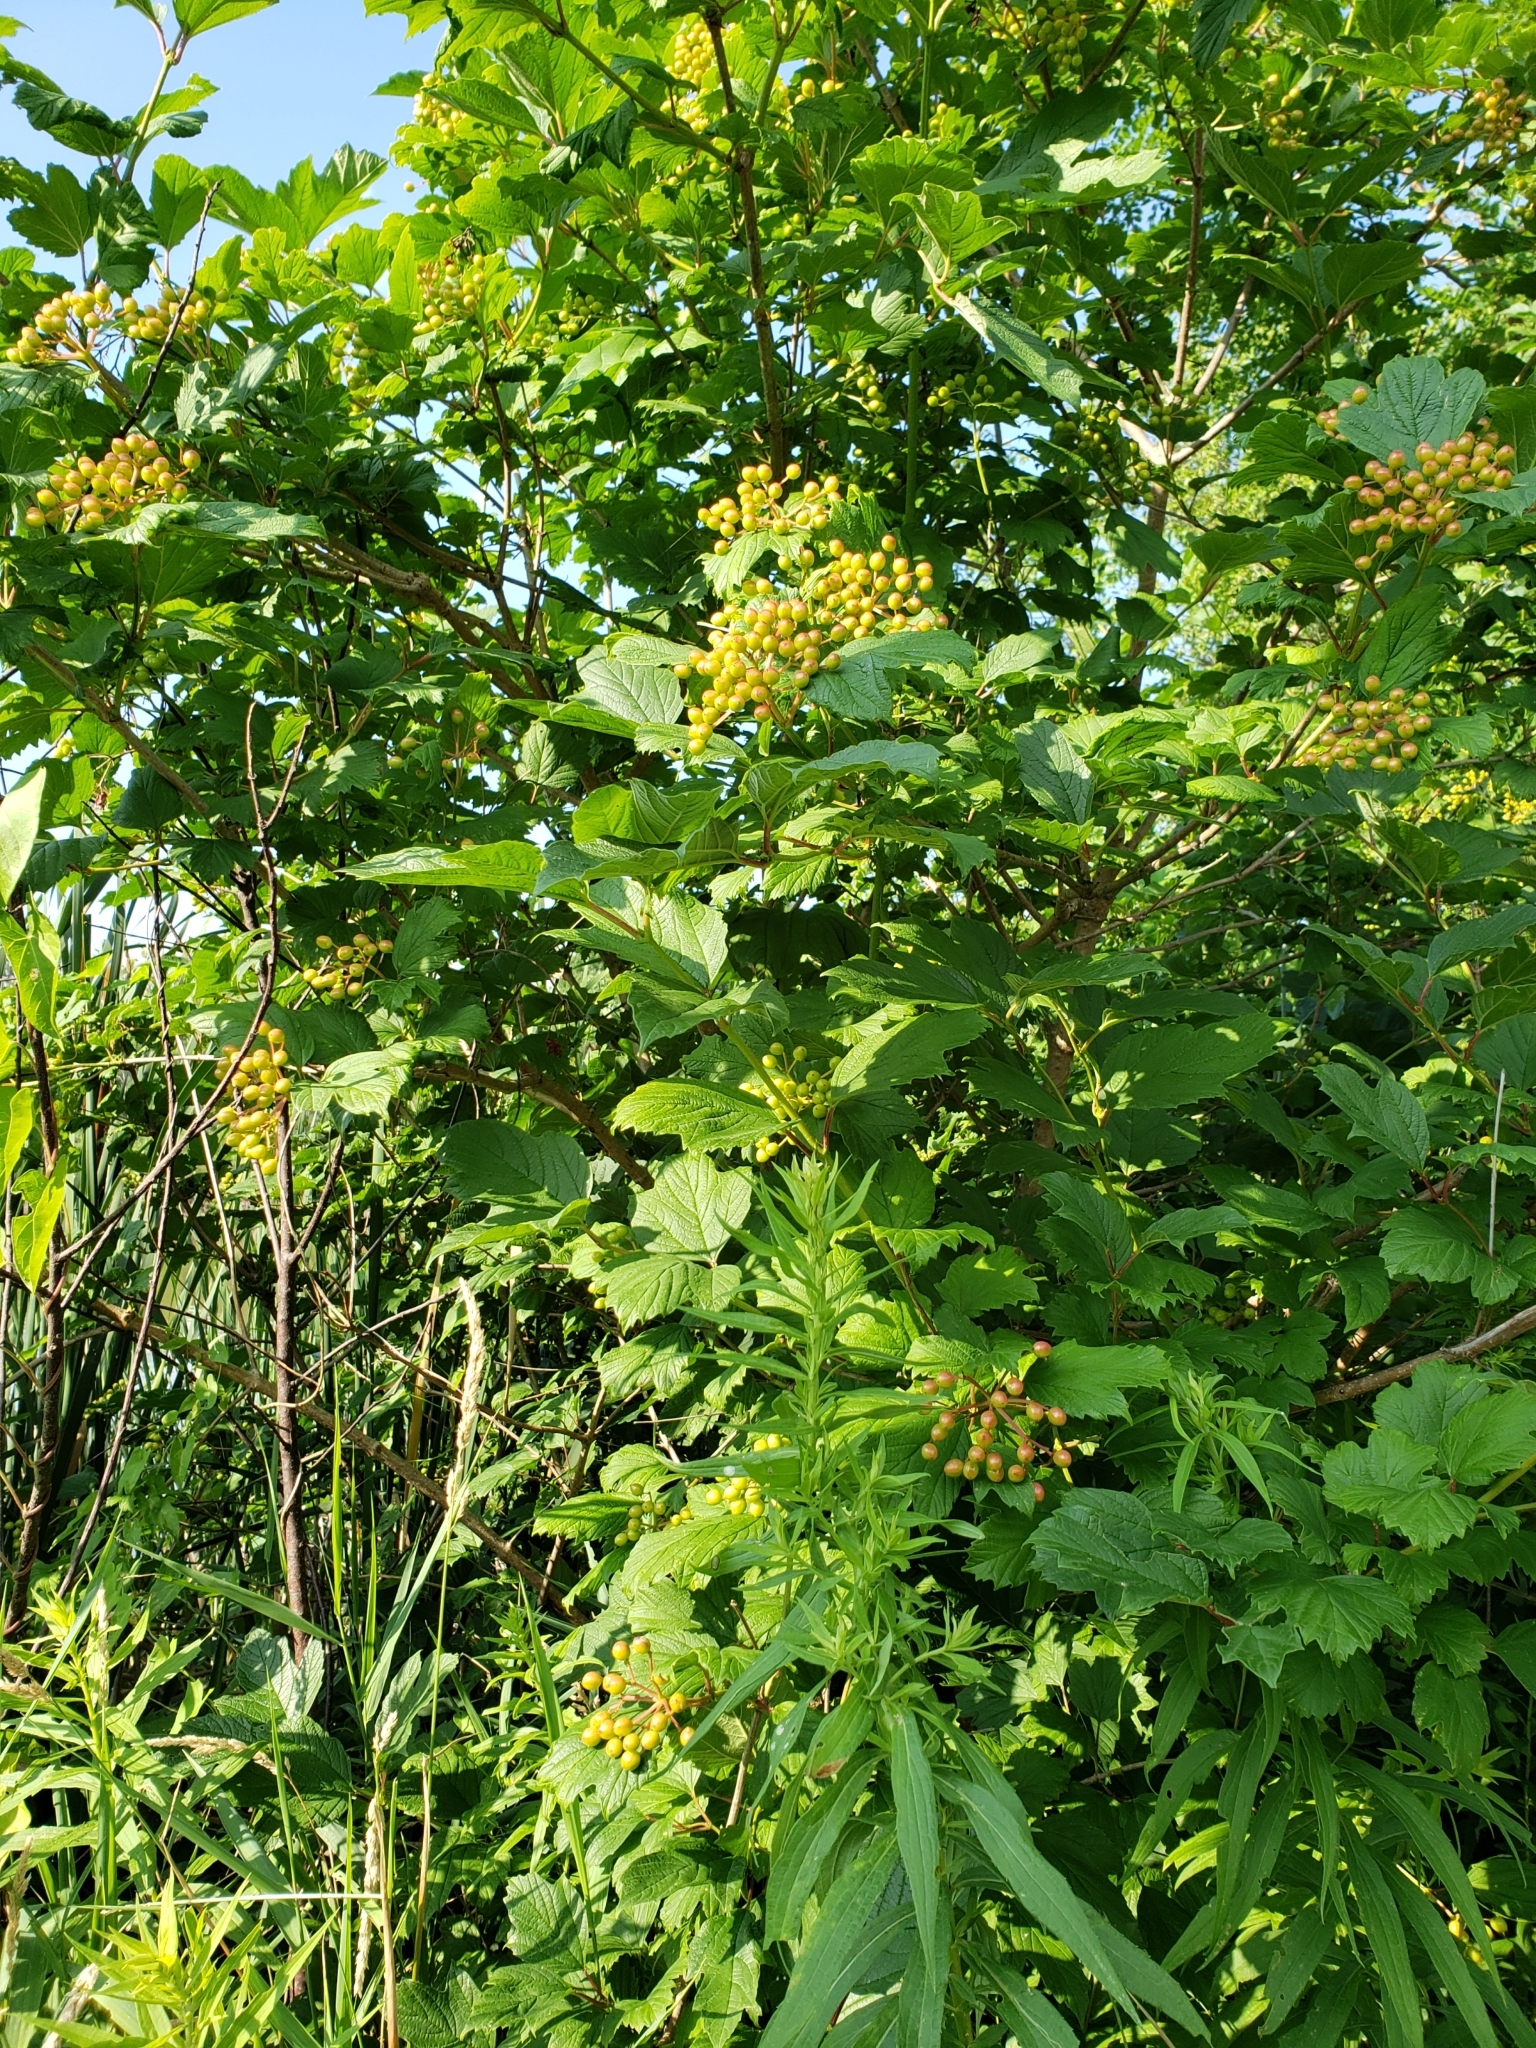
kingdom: Plantae
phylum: Tracheophyta
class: Magnoliopsida
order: Dipsacales
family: Viburnaceae
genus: Viburnum
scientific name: Viburnum opulus
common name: Guelder-rose
